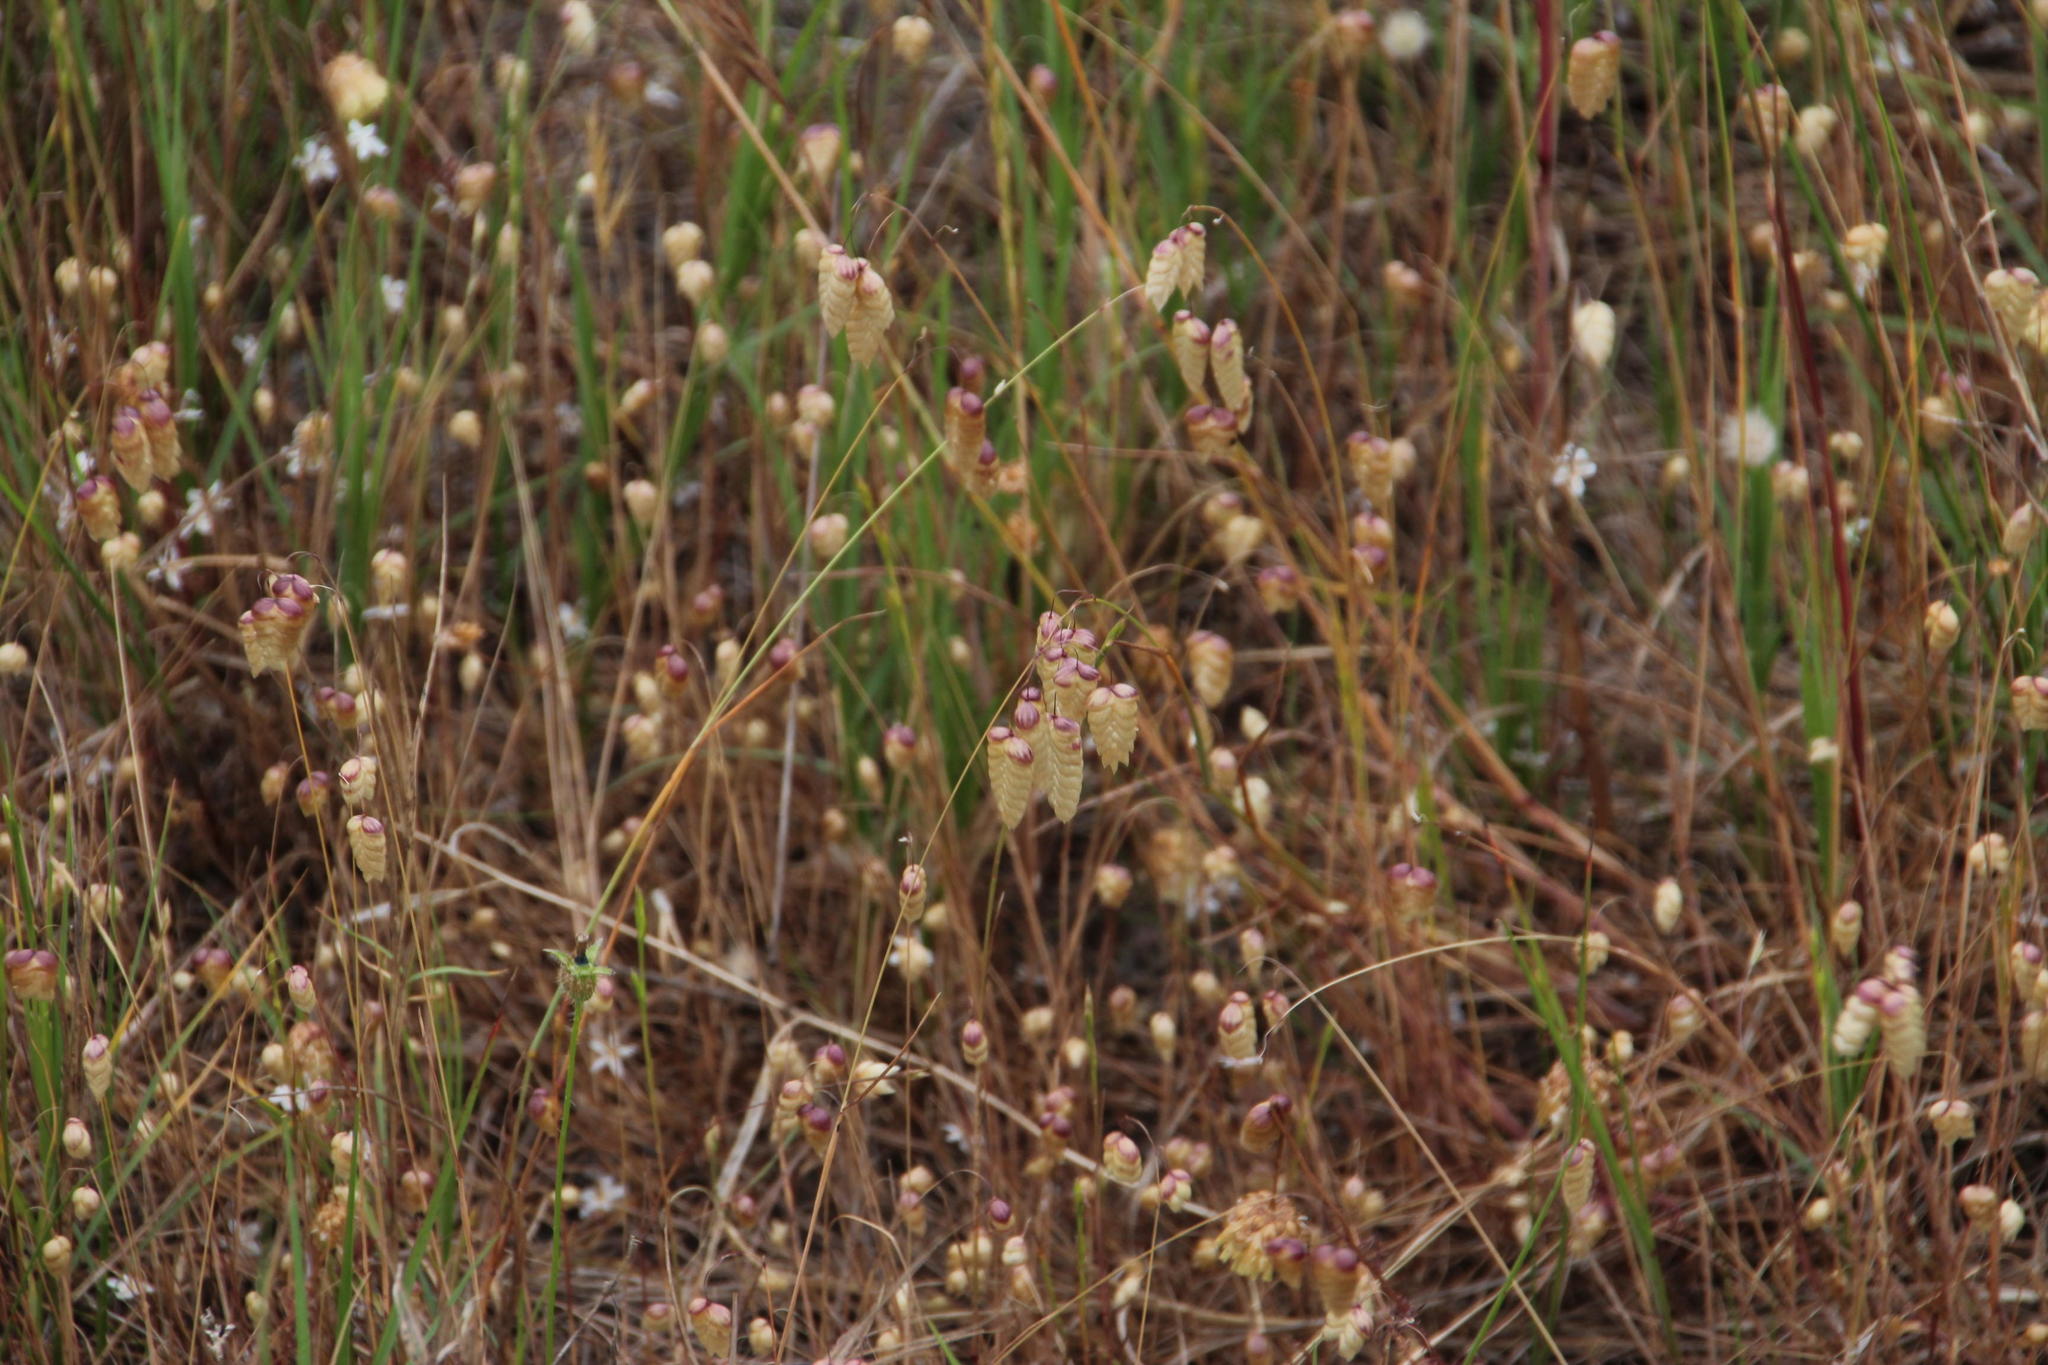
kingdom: Plantae
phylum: Tracheophyta
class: Liliopsida
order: Poales
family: Poaceae
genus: Briza
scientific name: Briza maxima
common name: Big quakinggrass
